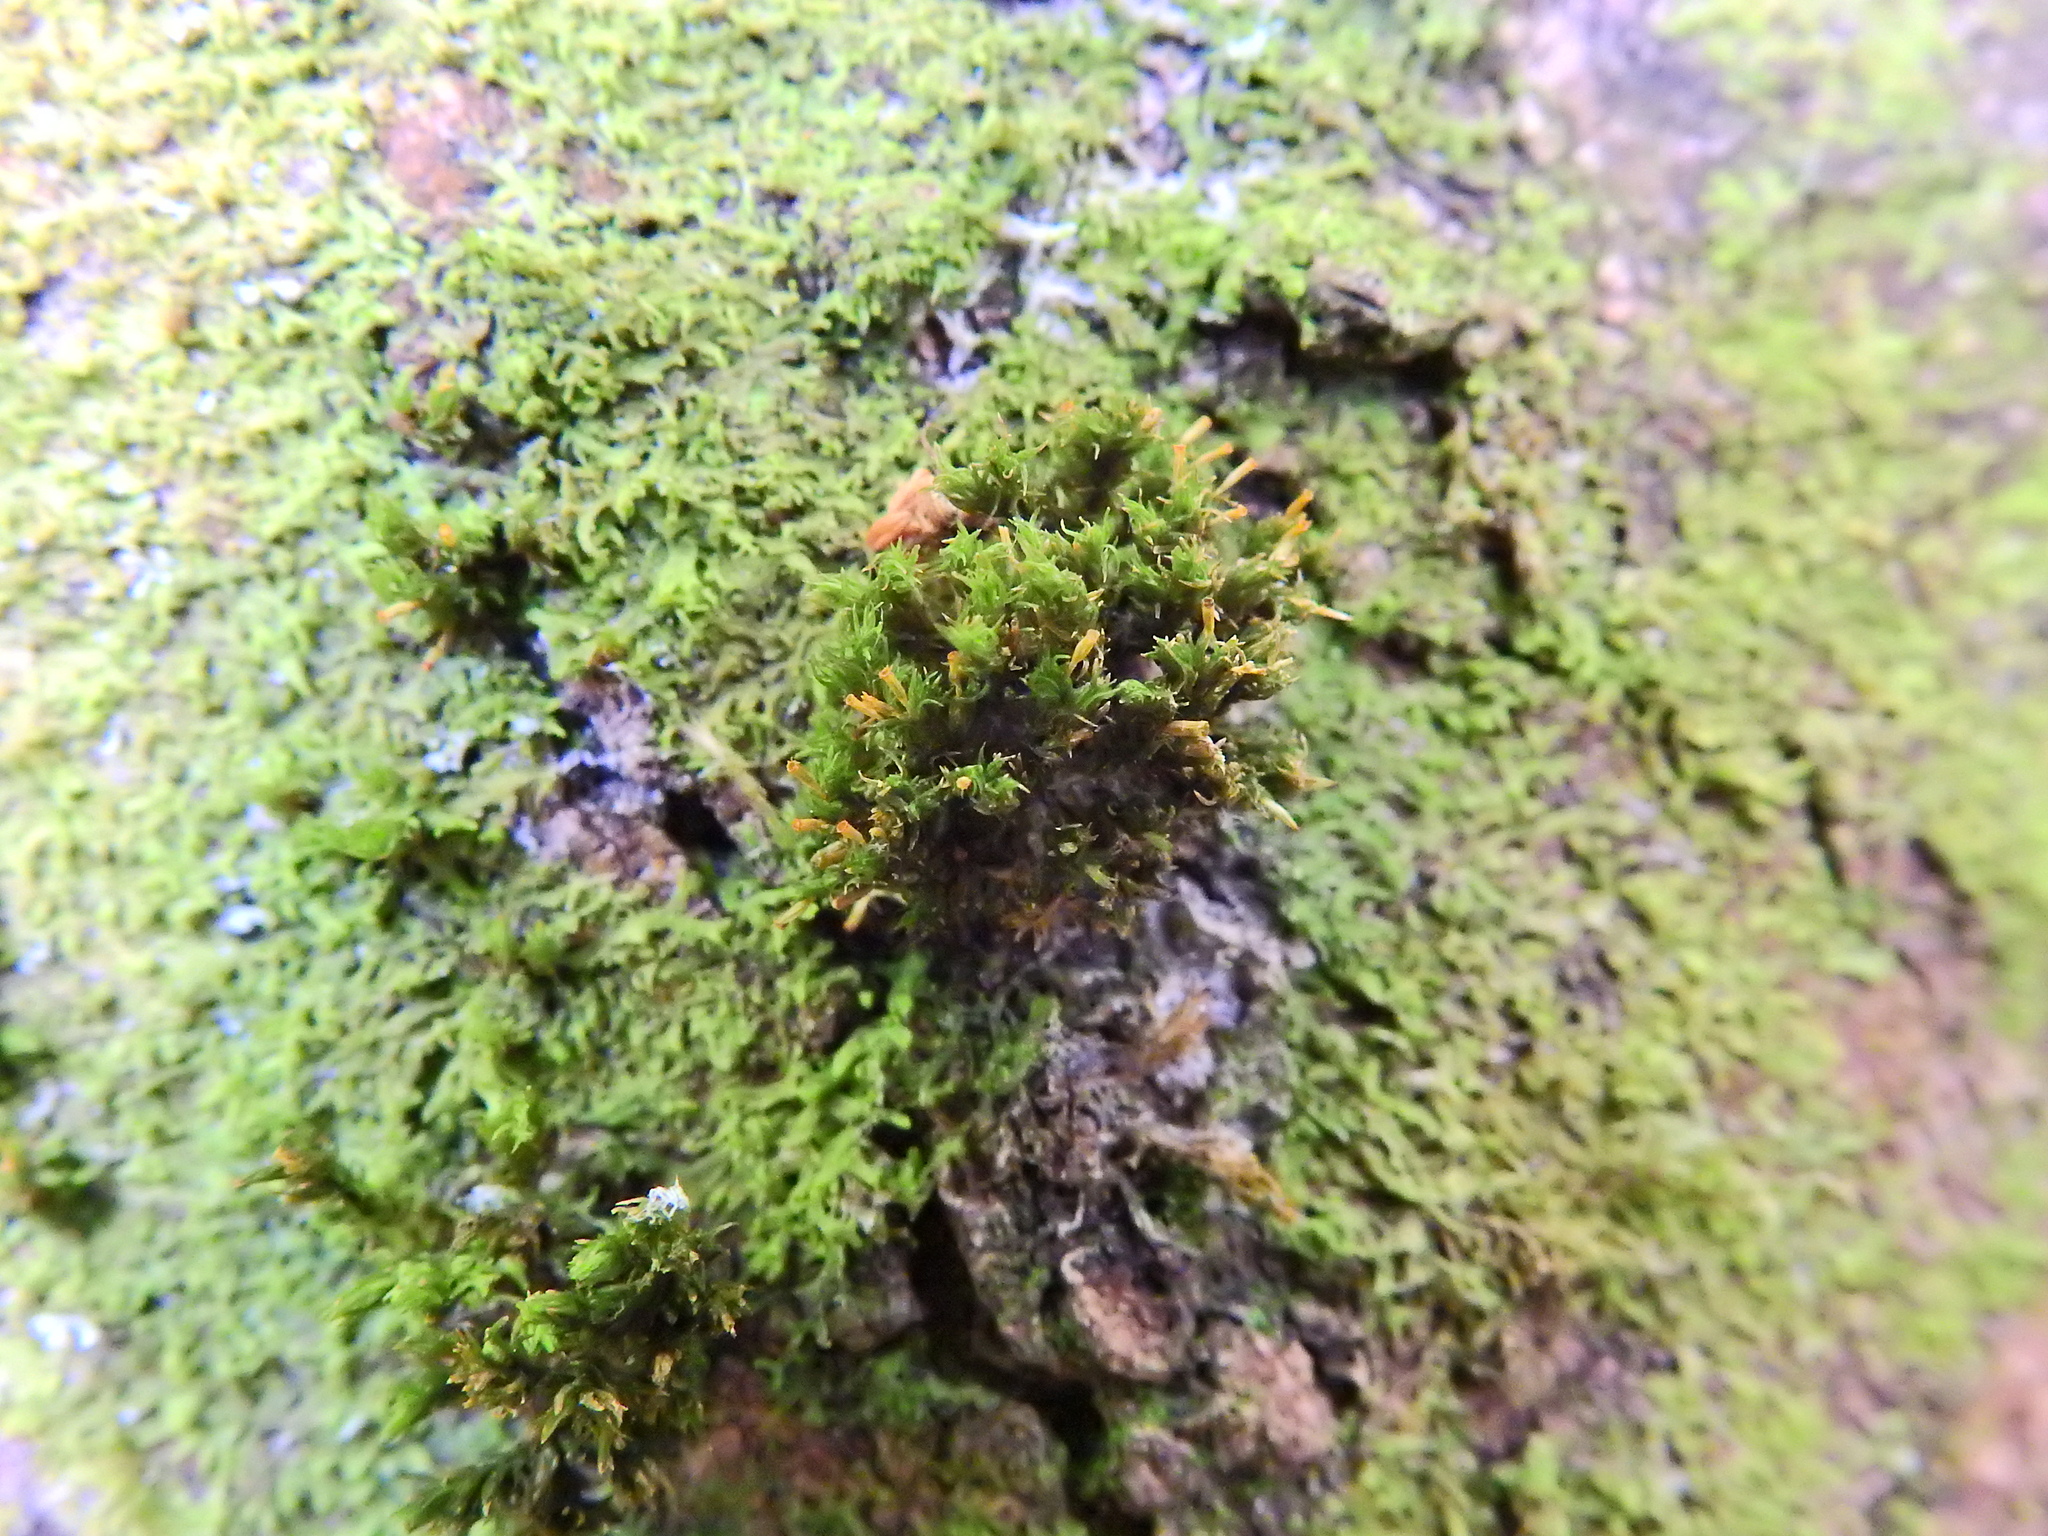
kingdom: Plantae
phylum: Bryophyta
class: Bryopsida
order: Orthotrichales
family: Orthotrichaceae
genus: Orthotrichum
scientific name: Orthotrichum pulchellum
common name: Elegant bristle-moss
